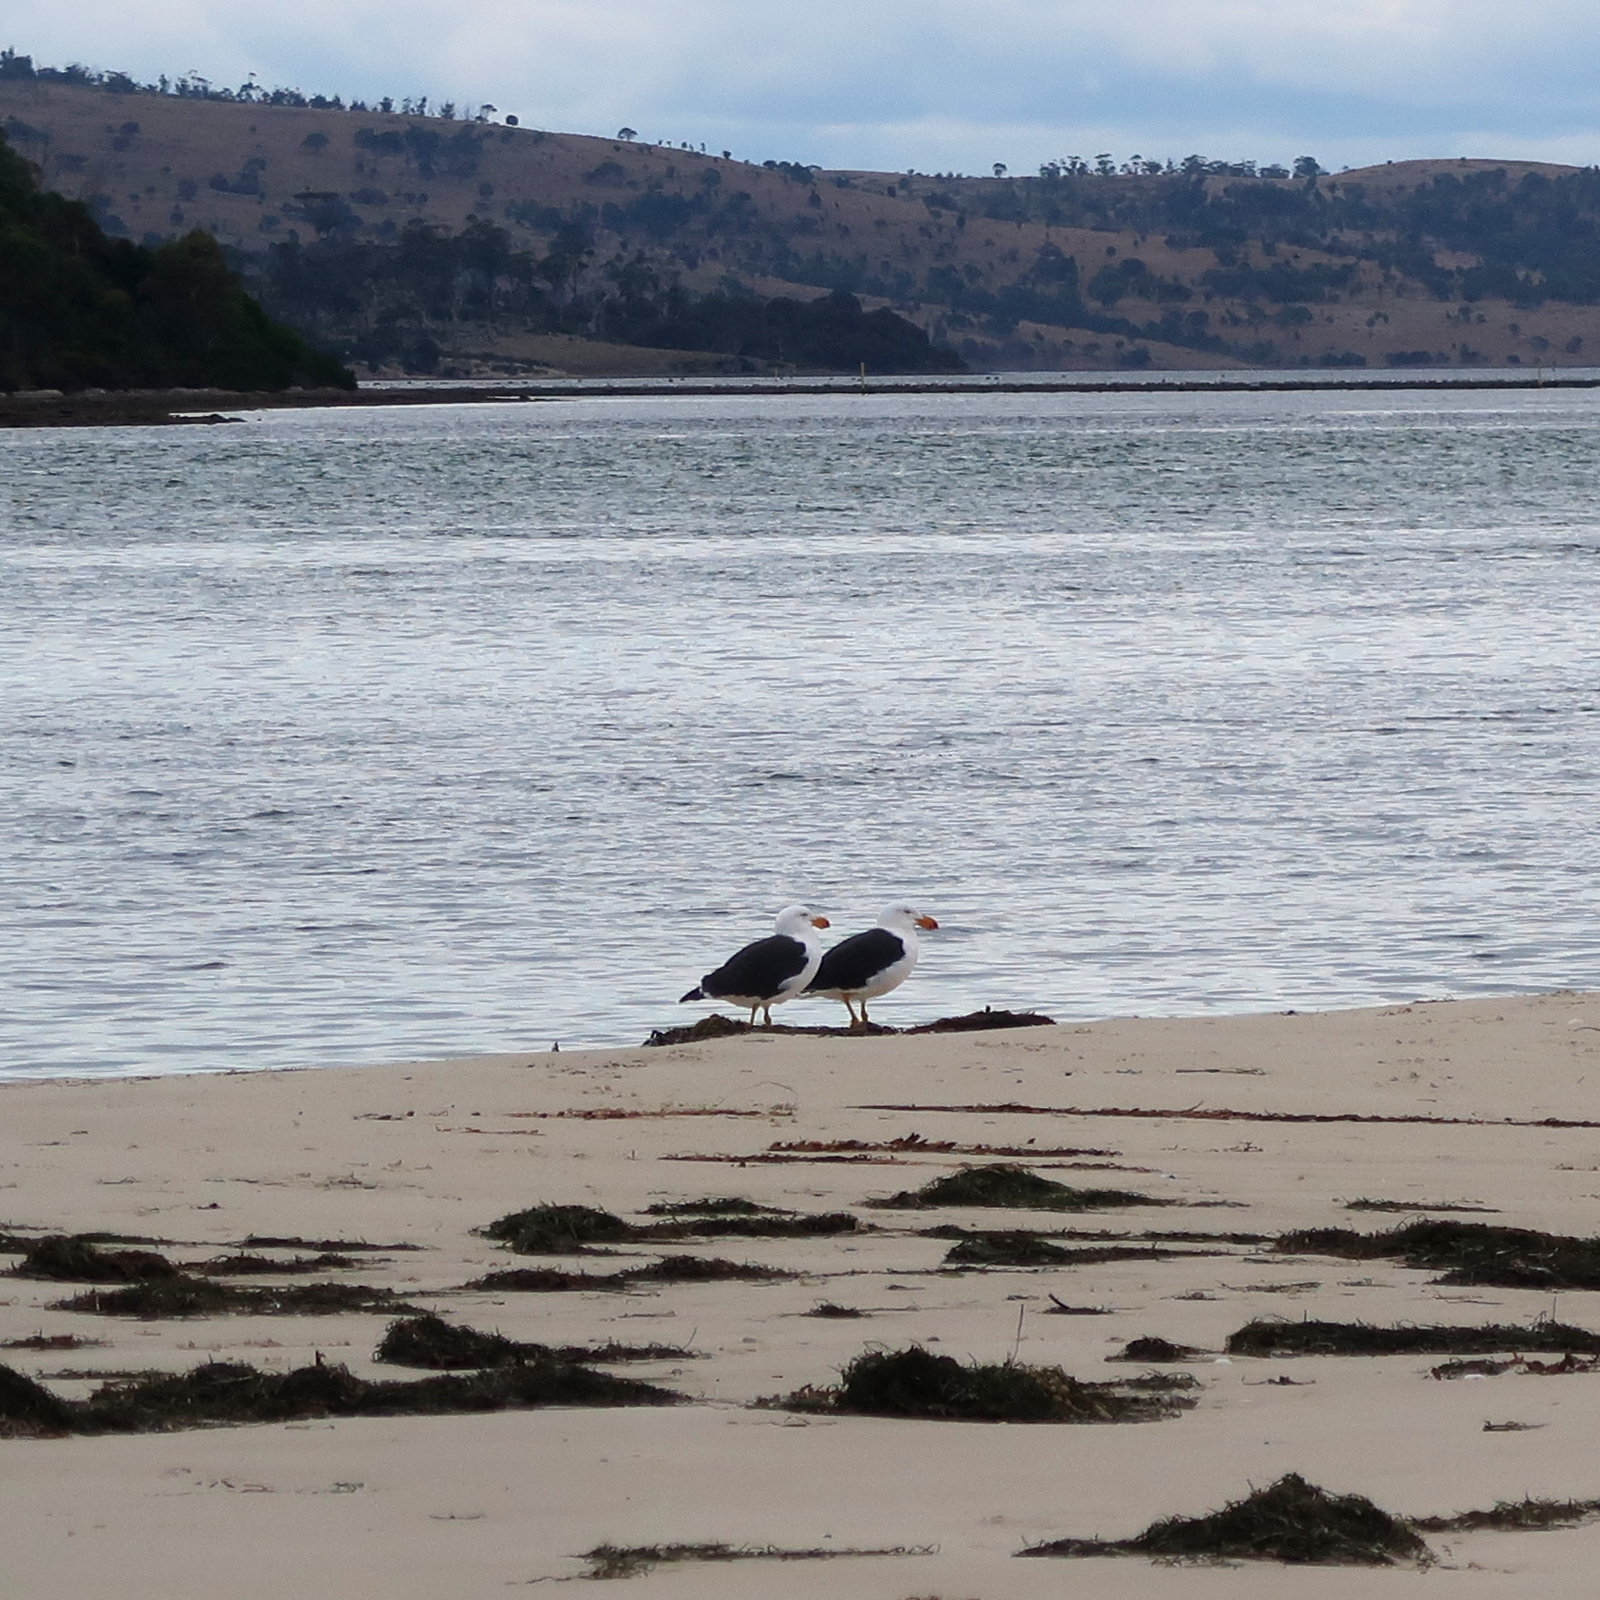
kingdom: Animalia
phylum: Chordata
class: Aves
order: Charadriiformes
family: Laridae
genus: Larus
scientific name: Larus pacificus
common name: Pacific gull
